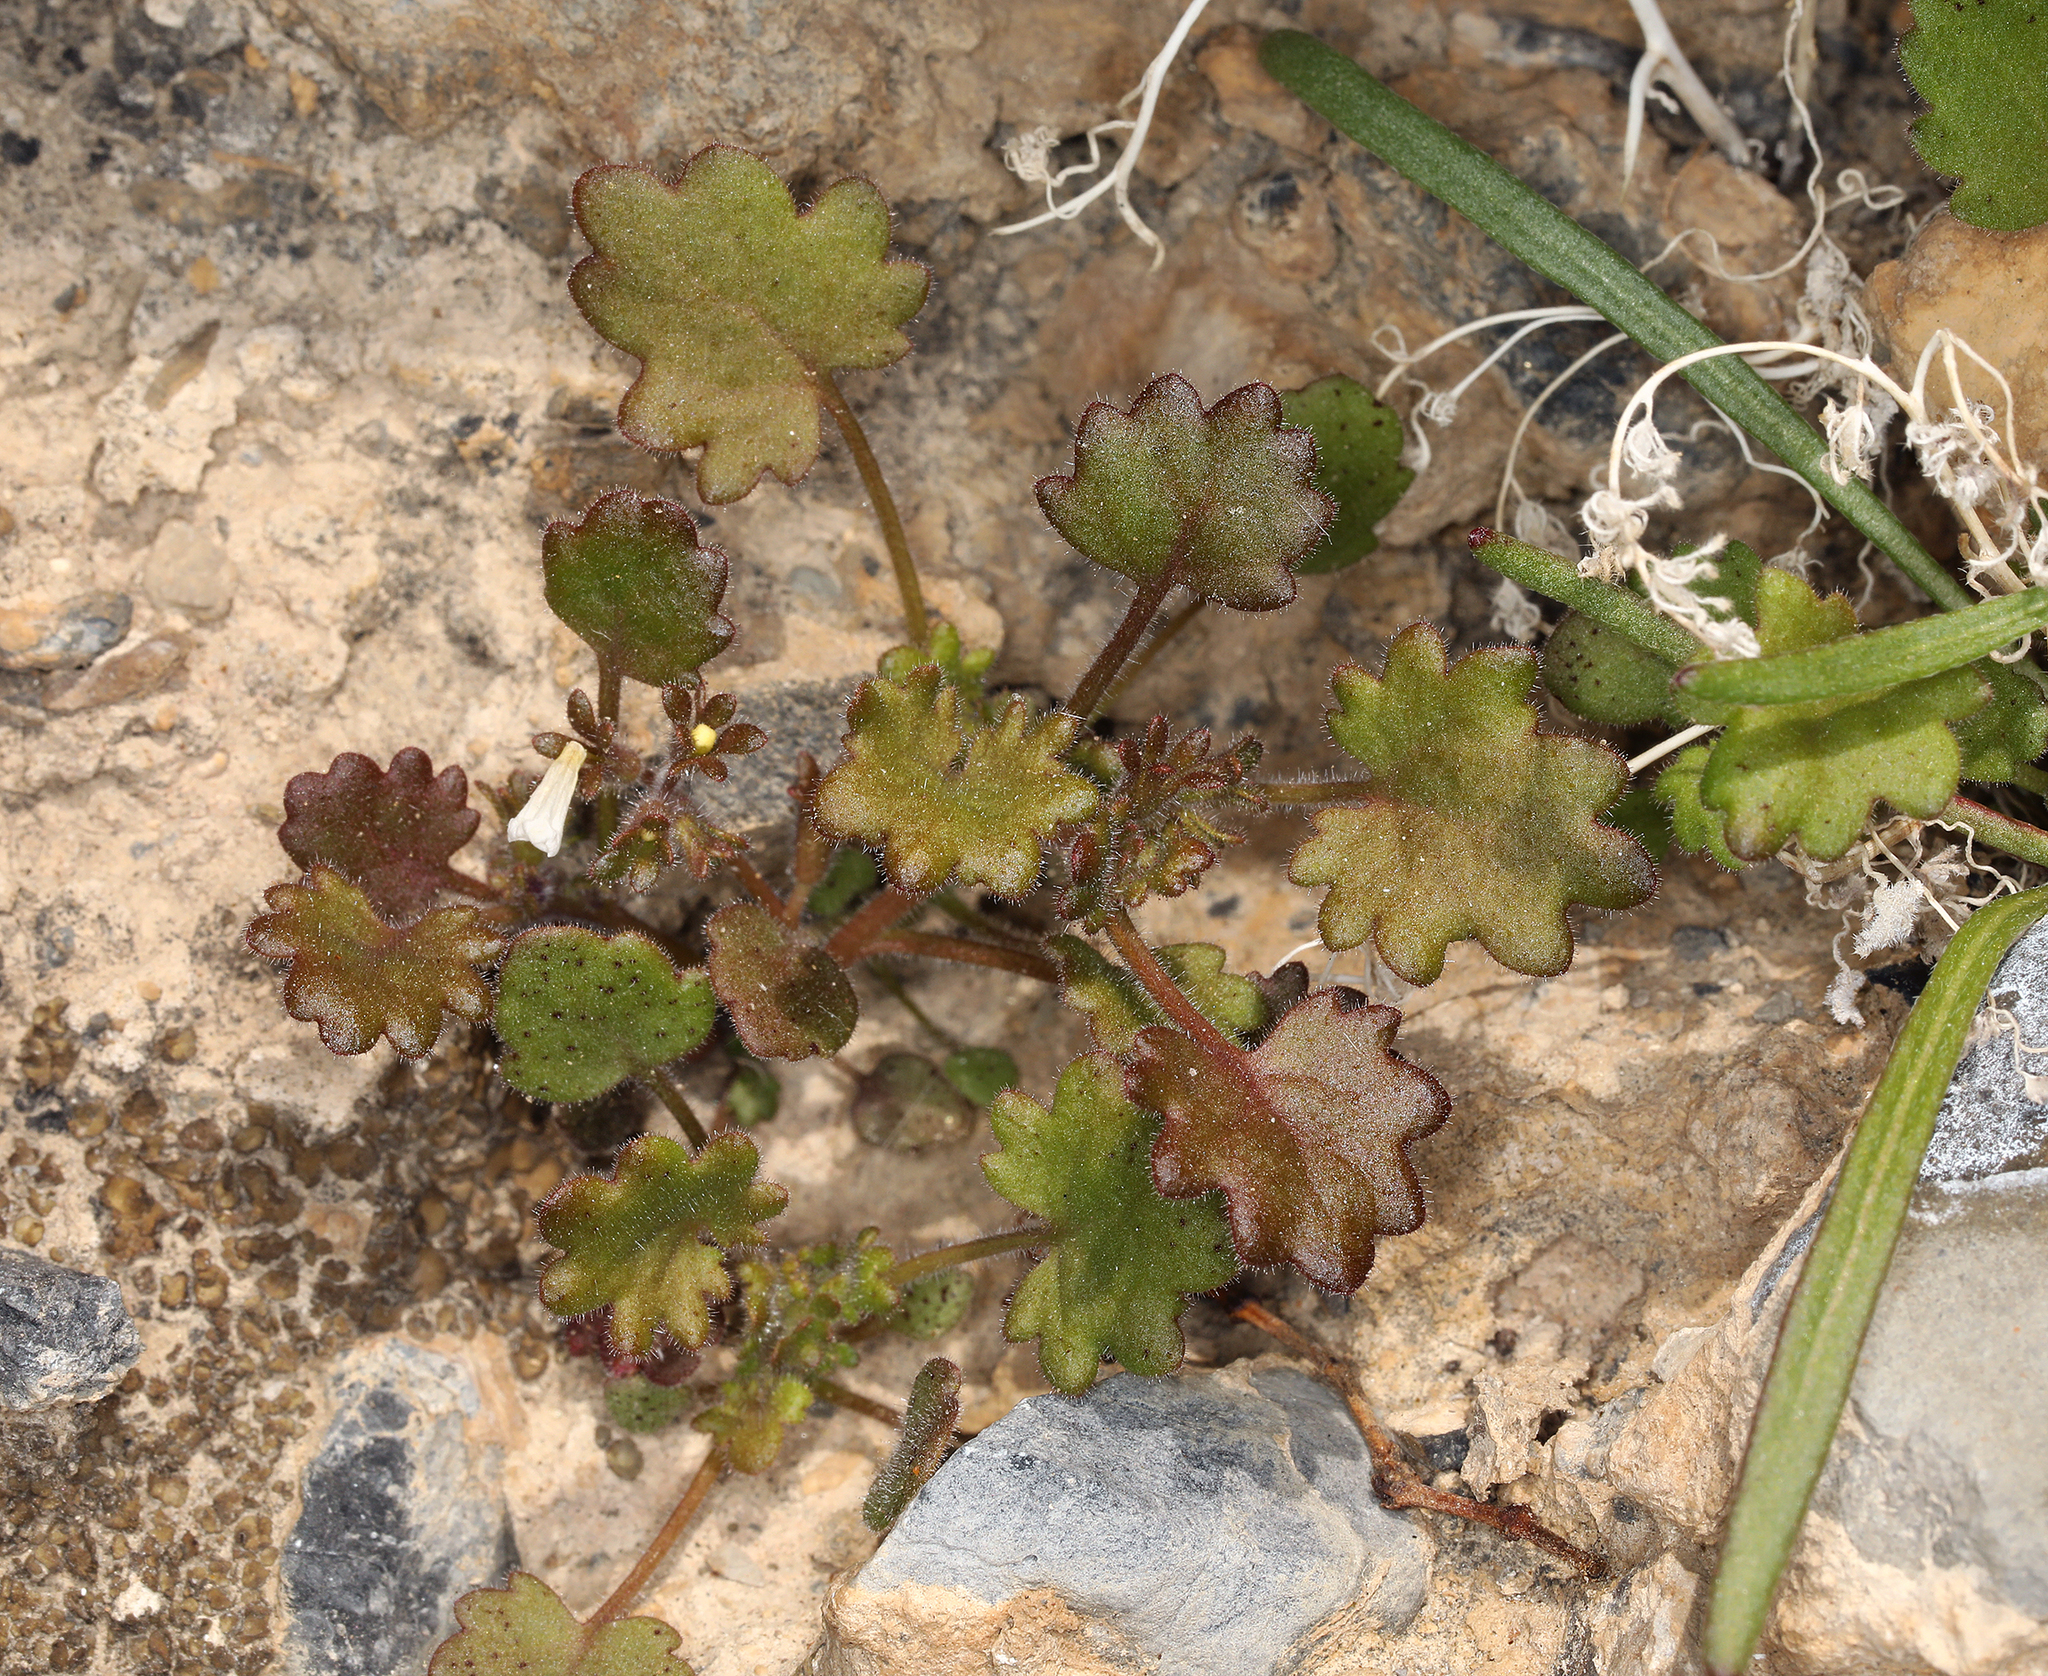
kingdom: Plantae
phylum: Tracheophyta
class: Magnoliopsida
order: Boraginales
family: Hydrophyllaceae
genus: Phacelia
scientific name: Phacelia rotundifolia
